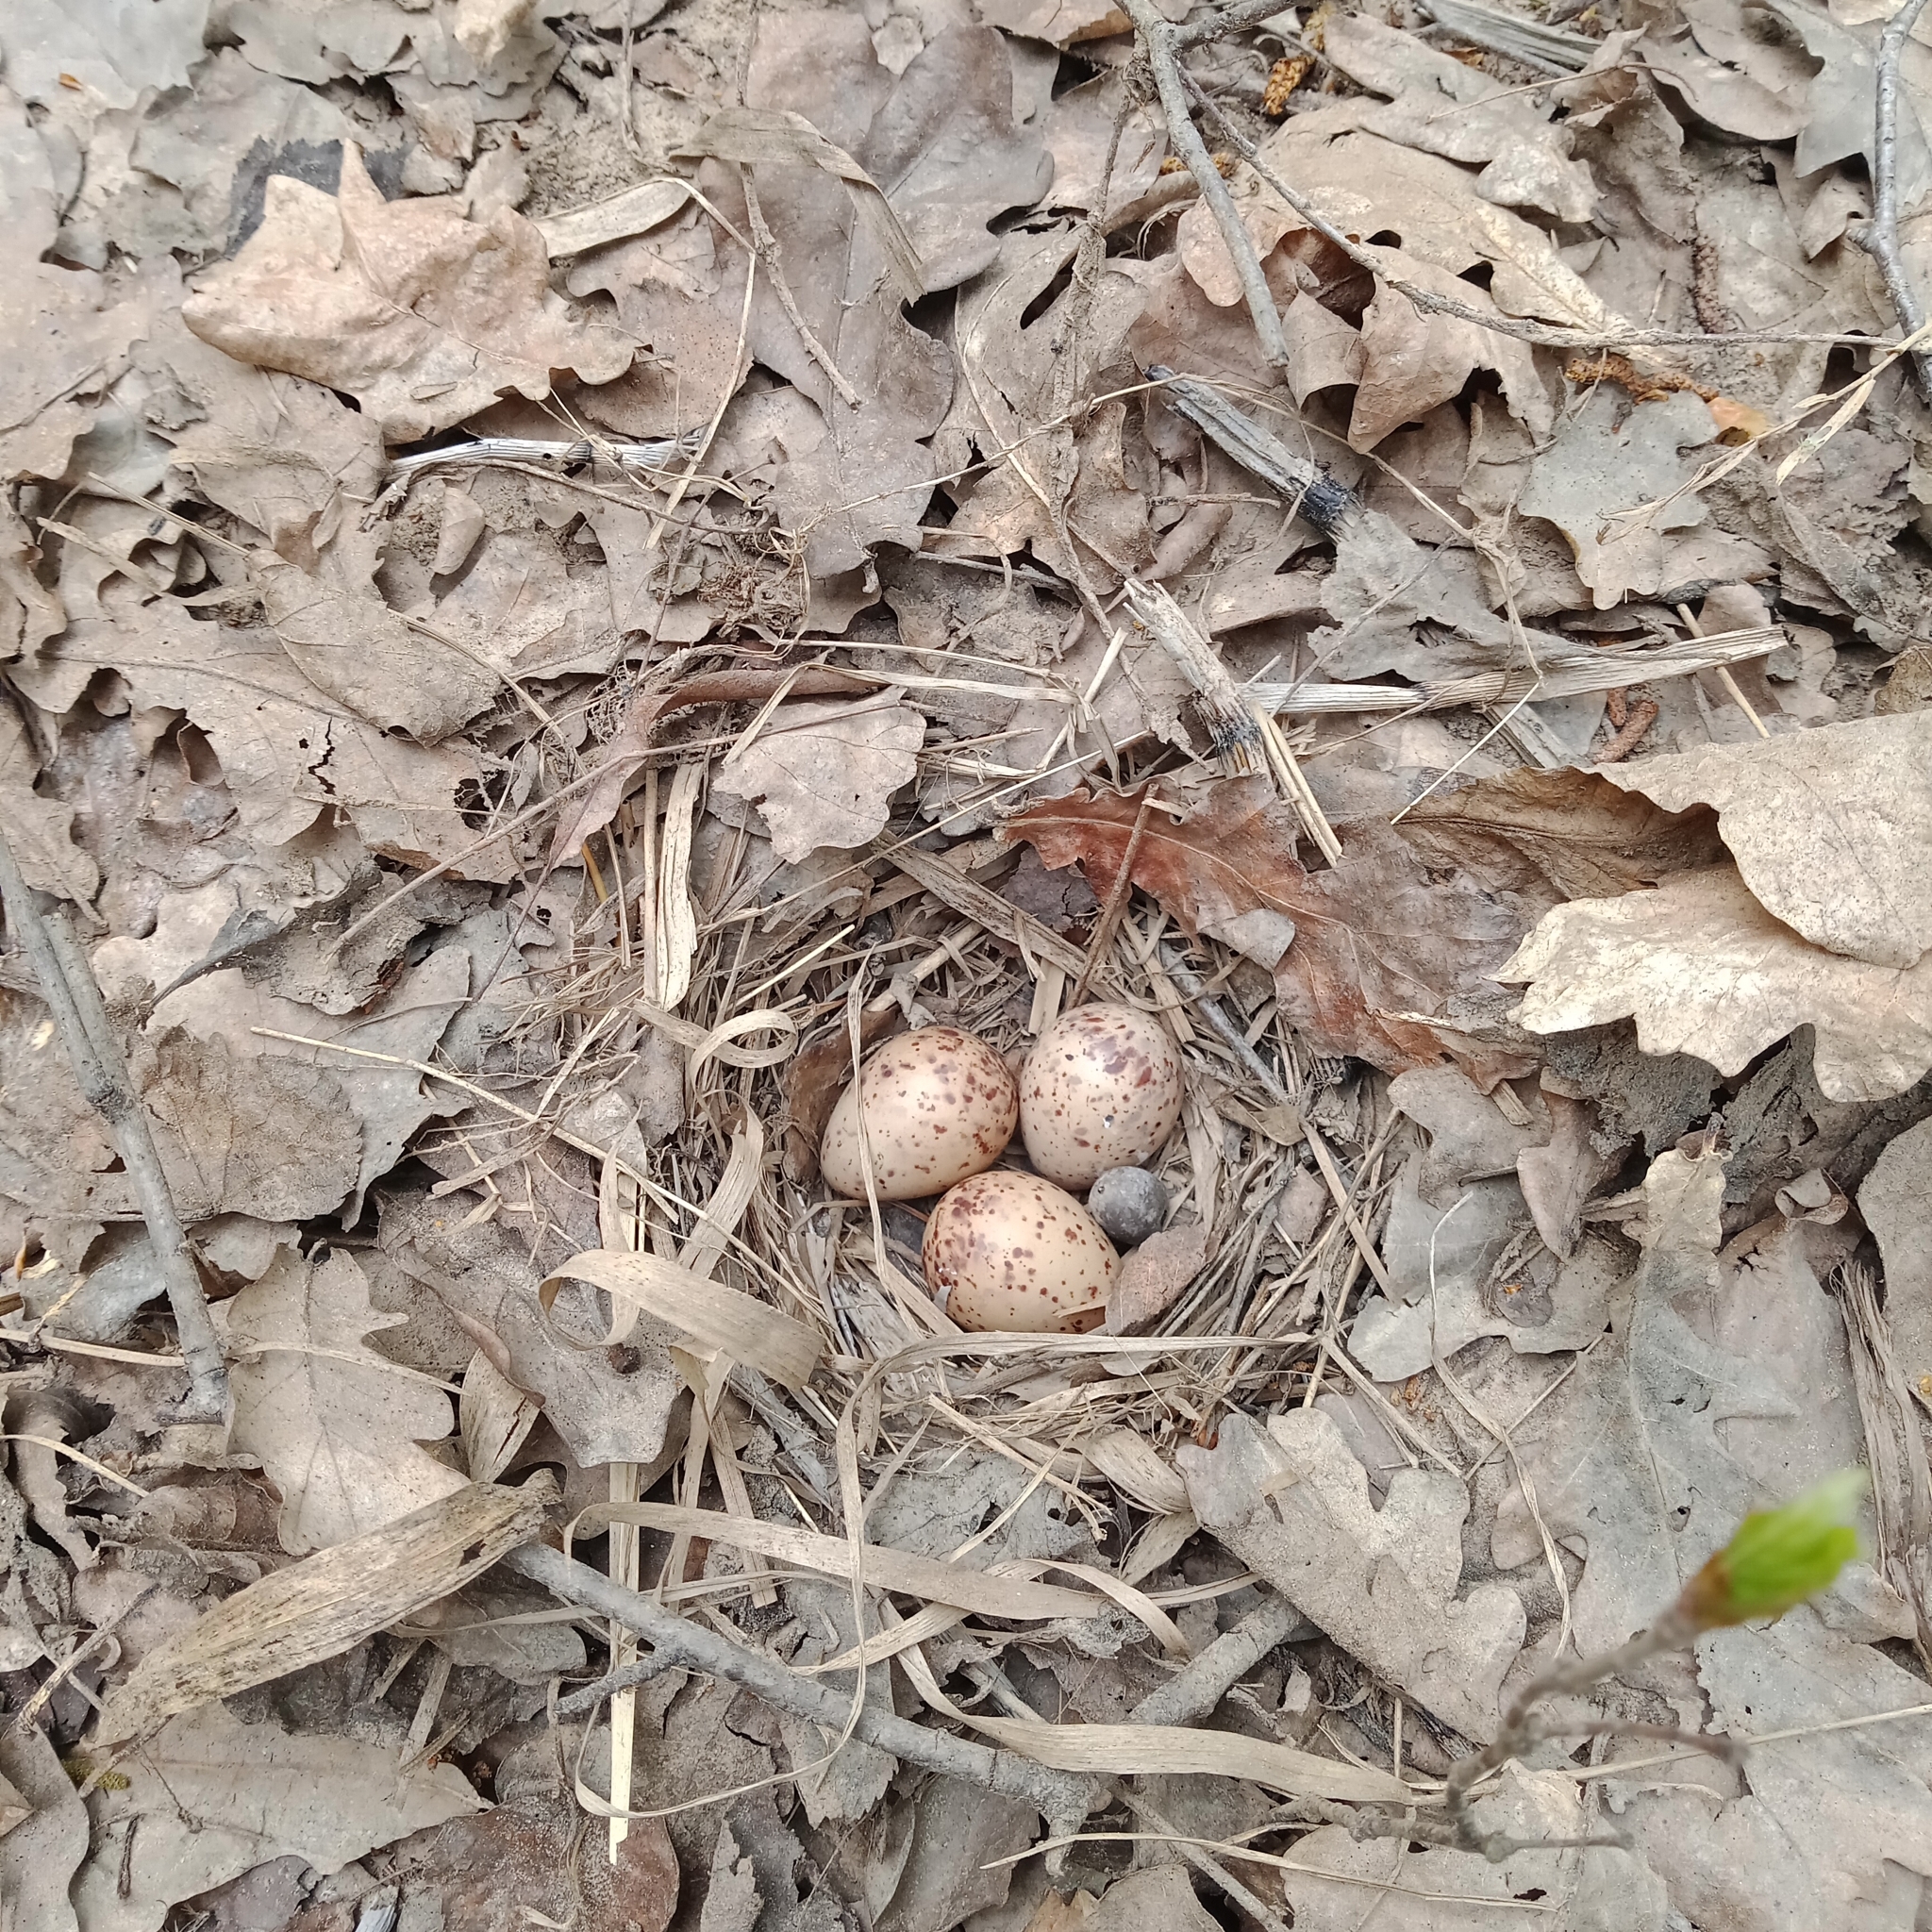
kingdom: Animalia
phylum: Chordata
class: Aves
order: Charadriiformes
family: Scolopacidae
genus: Actitis
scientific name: Actitis hypoleucos
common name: Common sandpiper
